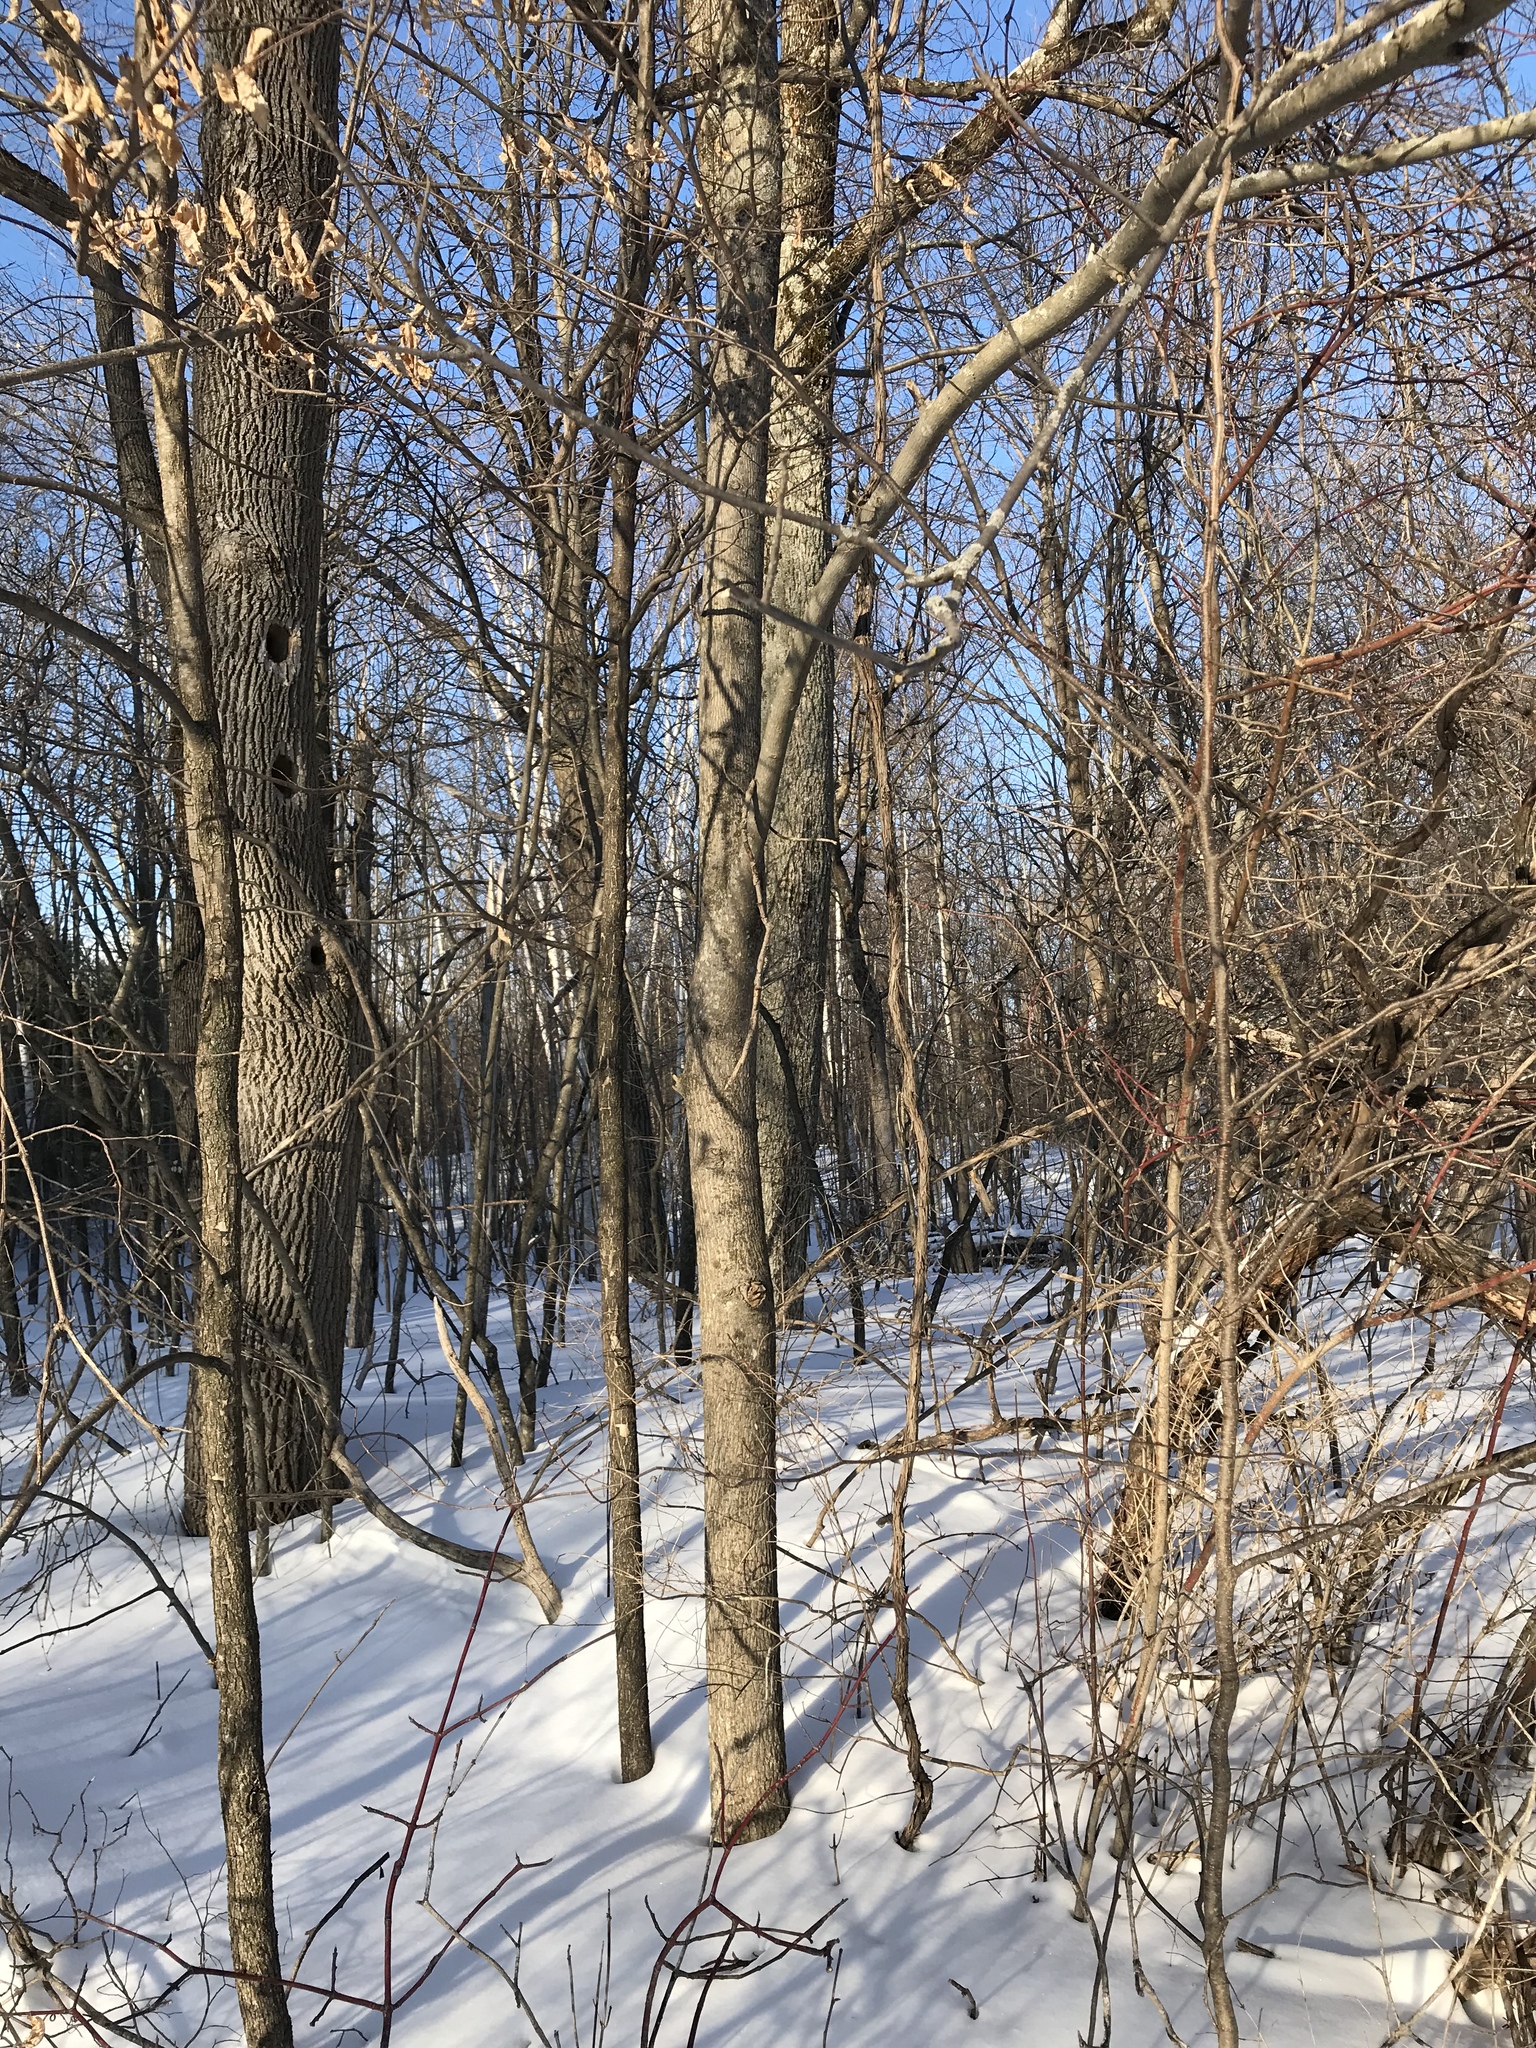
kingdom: Plantae
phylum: Tracheophyta
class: Magnoliopsida
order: Fagales
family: Juglandaceae
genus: Carya
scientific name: Carya cordiformis
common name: Bitternut hickory
